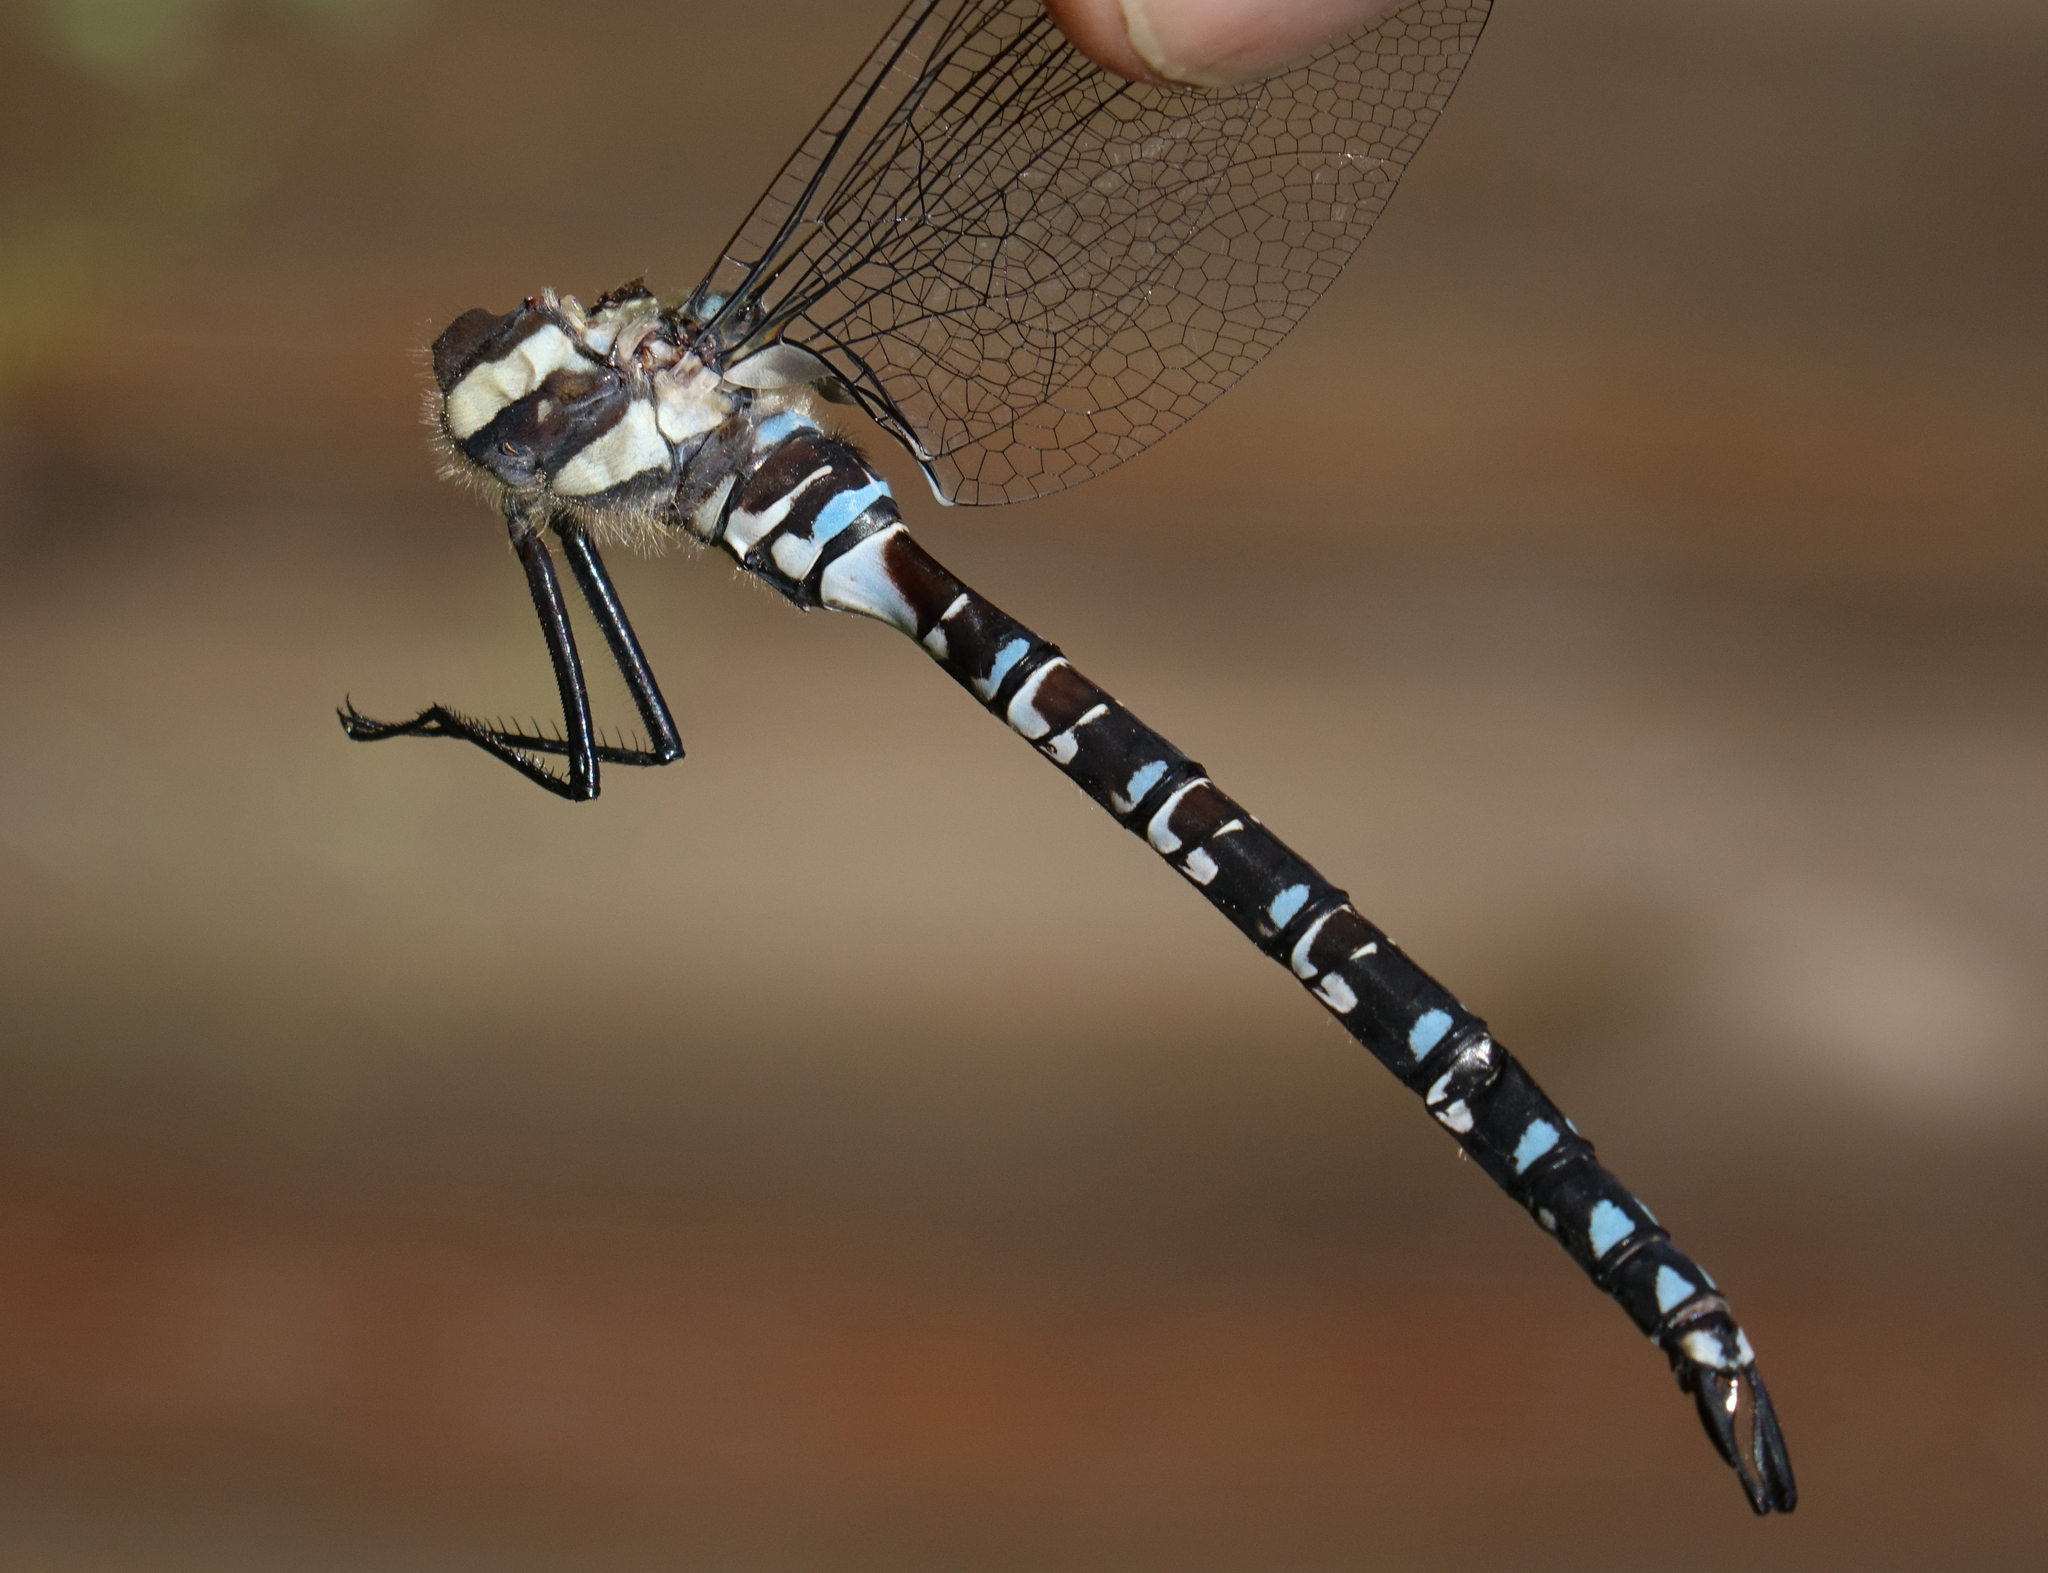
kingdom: Animalia
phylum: Arthropoda
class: Insecta
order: Odonata
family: Aeshnidae
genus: Aeshna
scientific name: Aeshna crenata
